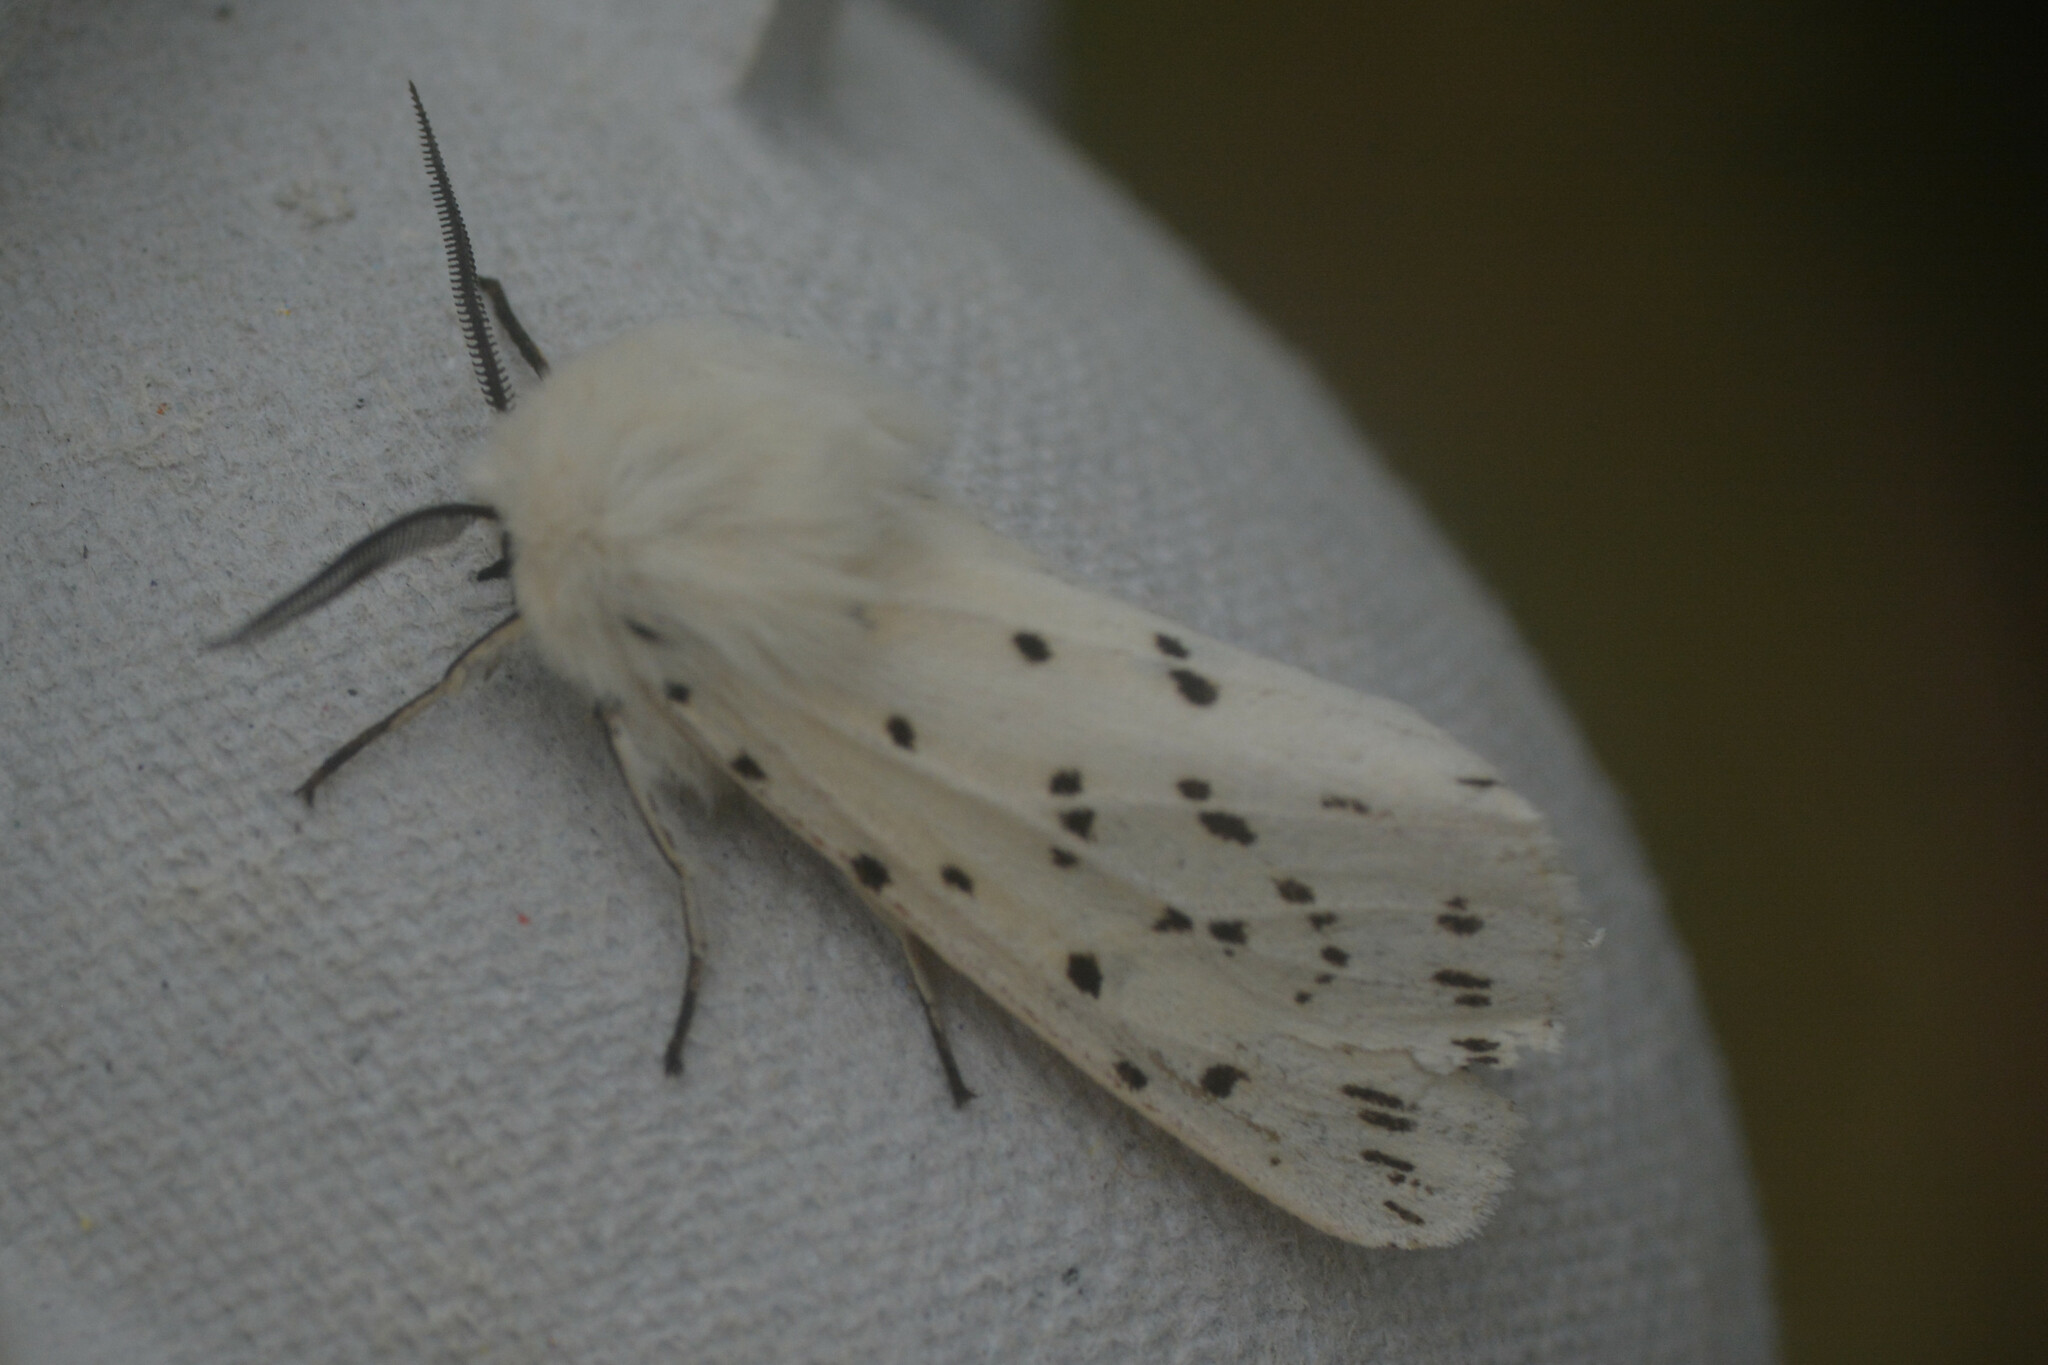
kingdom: Animalia
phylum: Arthropoda
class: Insecta
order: Lepidoptera
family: Erebidae
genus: Spilosoma
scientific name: Spilosoma lubricipeda
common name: White ermine
